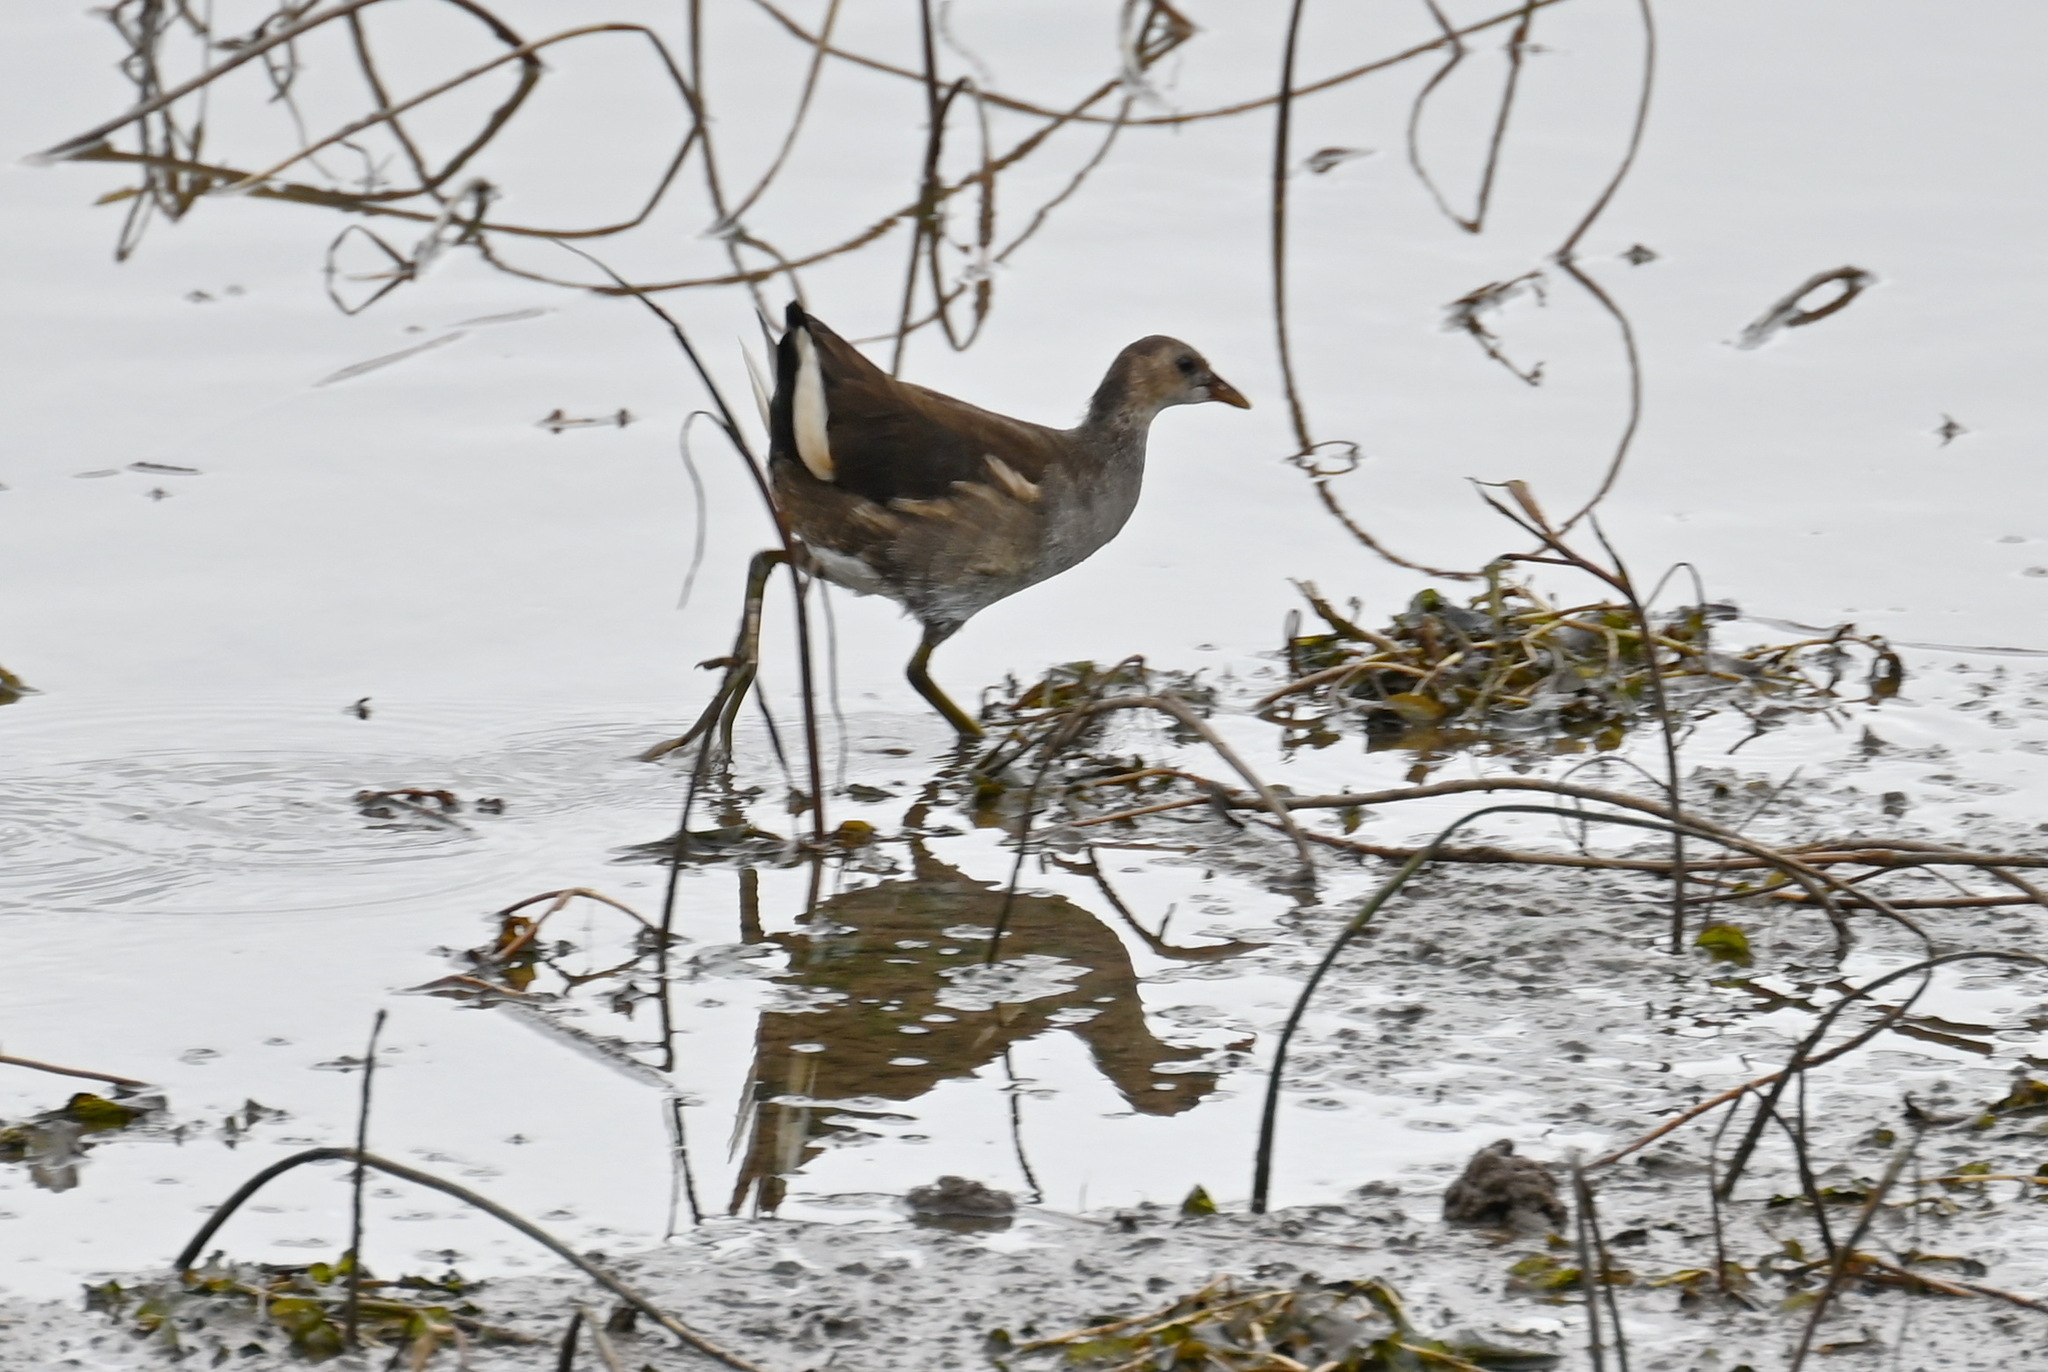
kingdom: Animalia
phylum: Chordata
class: Aves
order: Gruiformes
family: Rallidae
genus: Gallinula
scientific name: Gallinula chloropus
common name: Common moorhen
